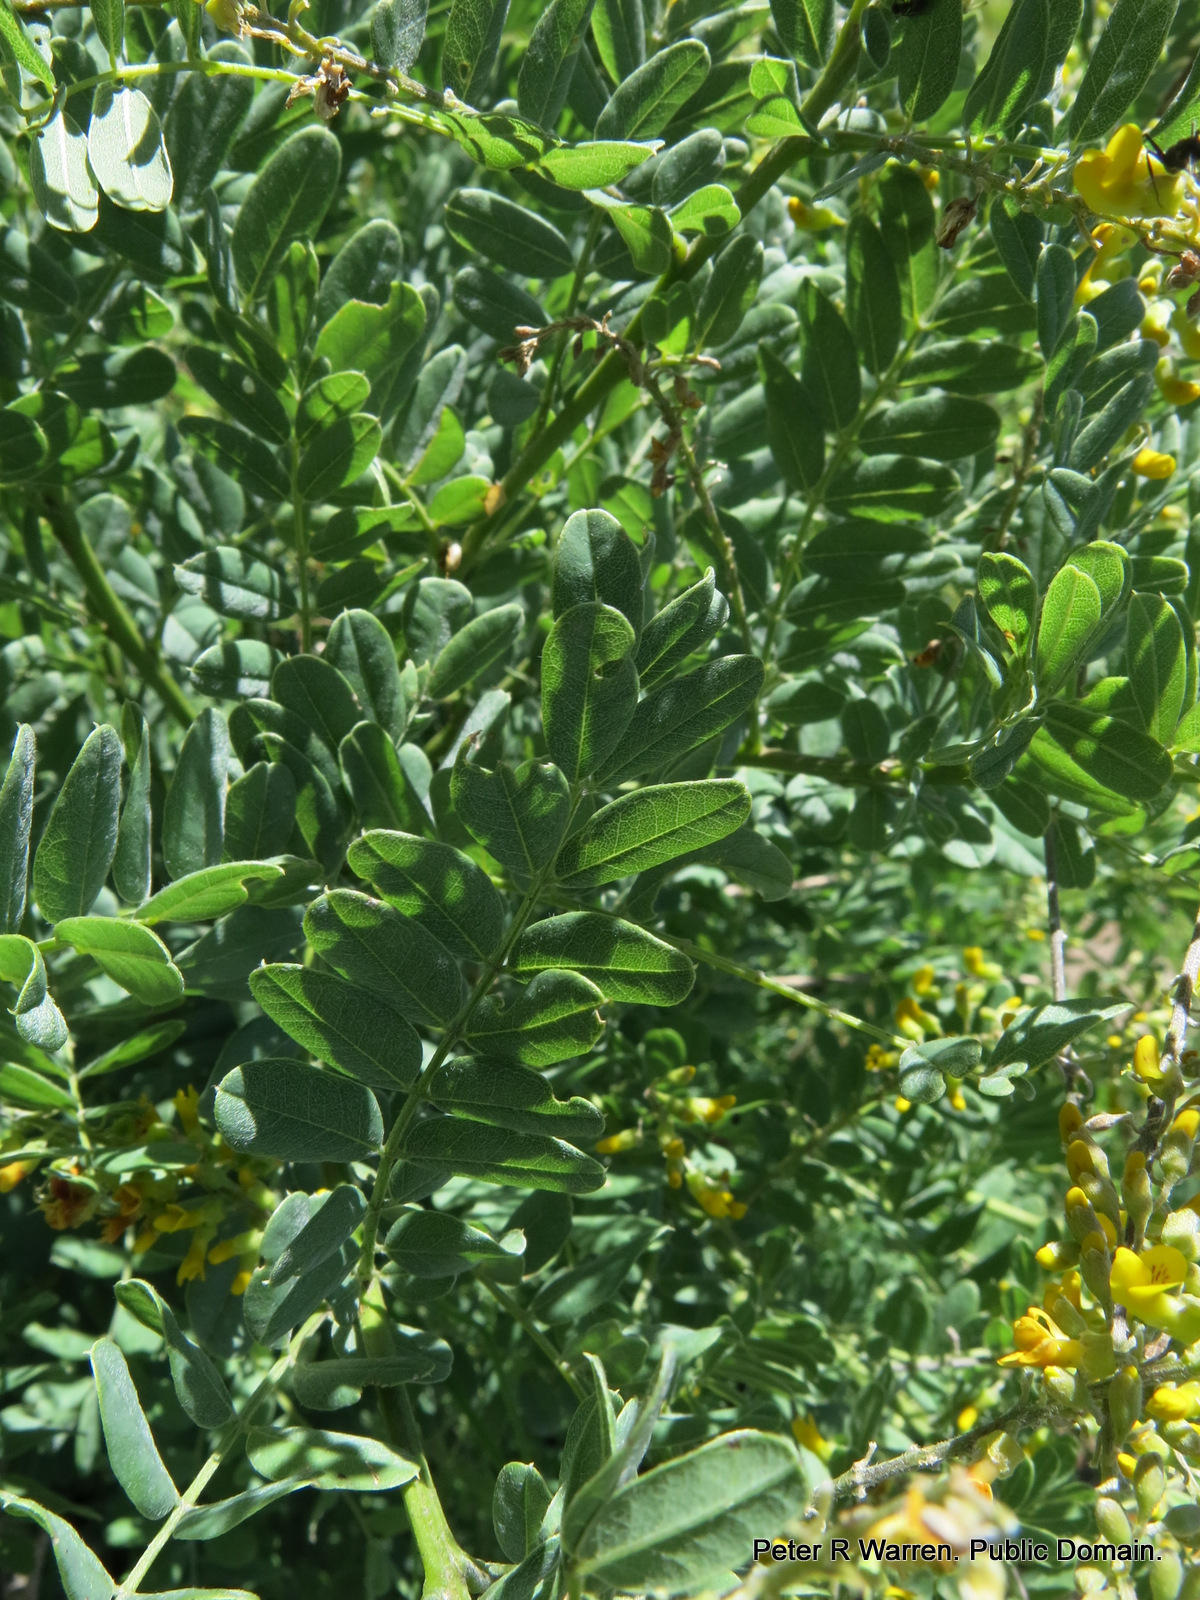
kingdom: Plantae
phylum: Tracheophyta
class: Magnoliopsida
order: Fabales
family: Fabaceae
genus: Calpurnia
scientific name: Calpurnia woodii
